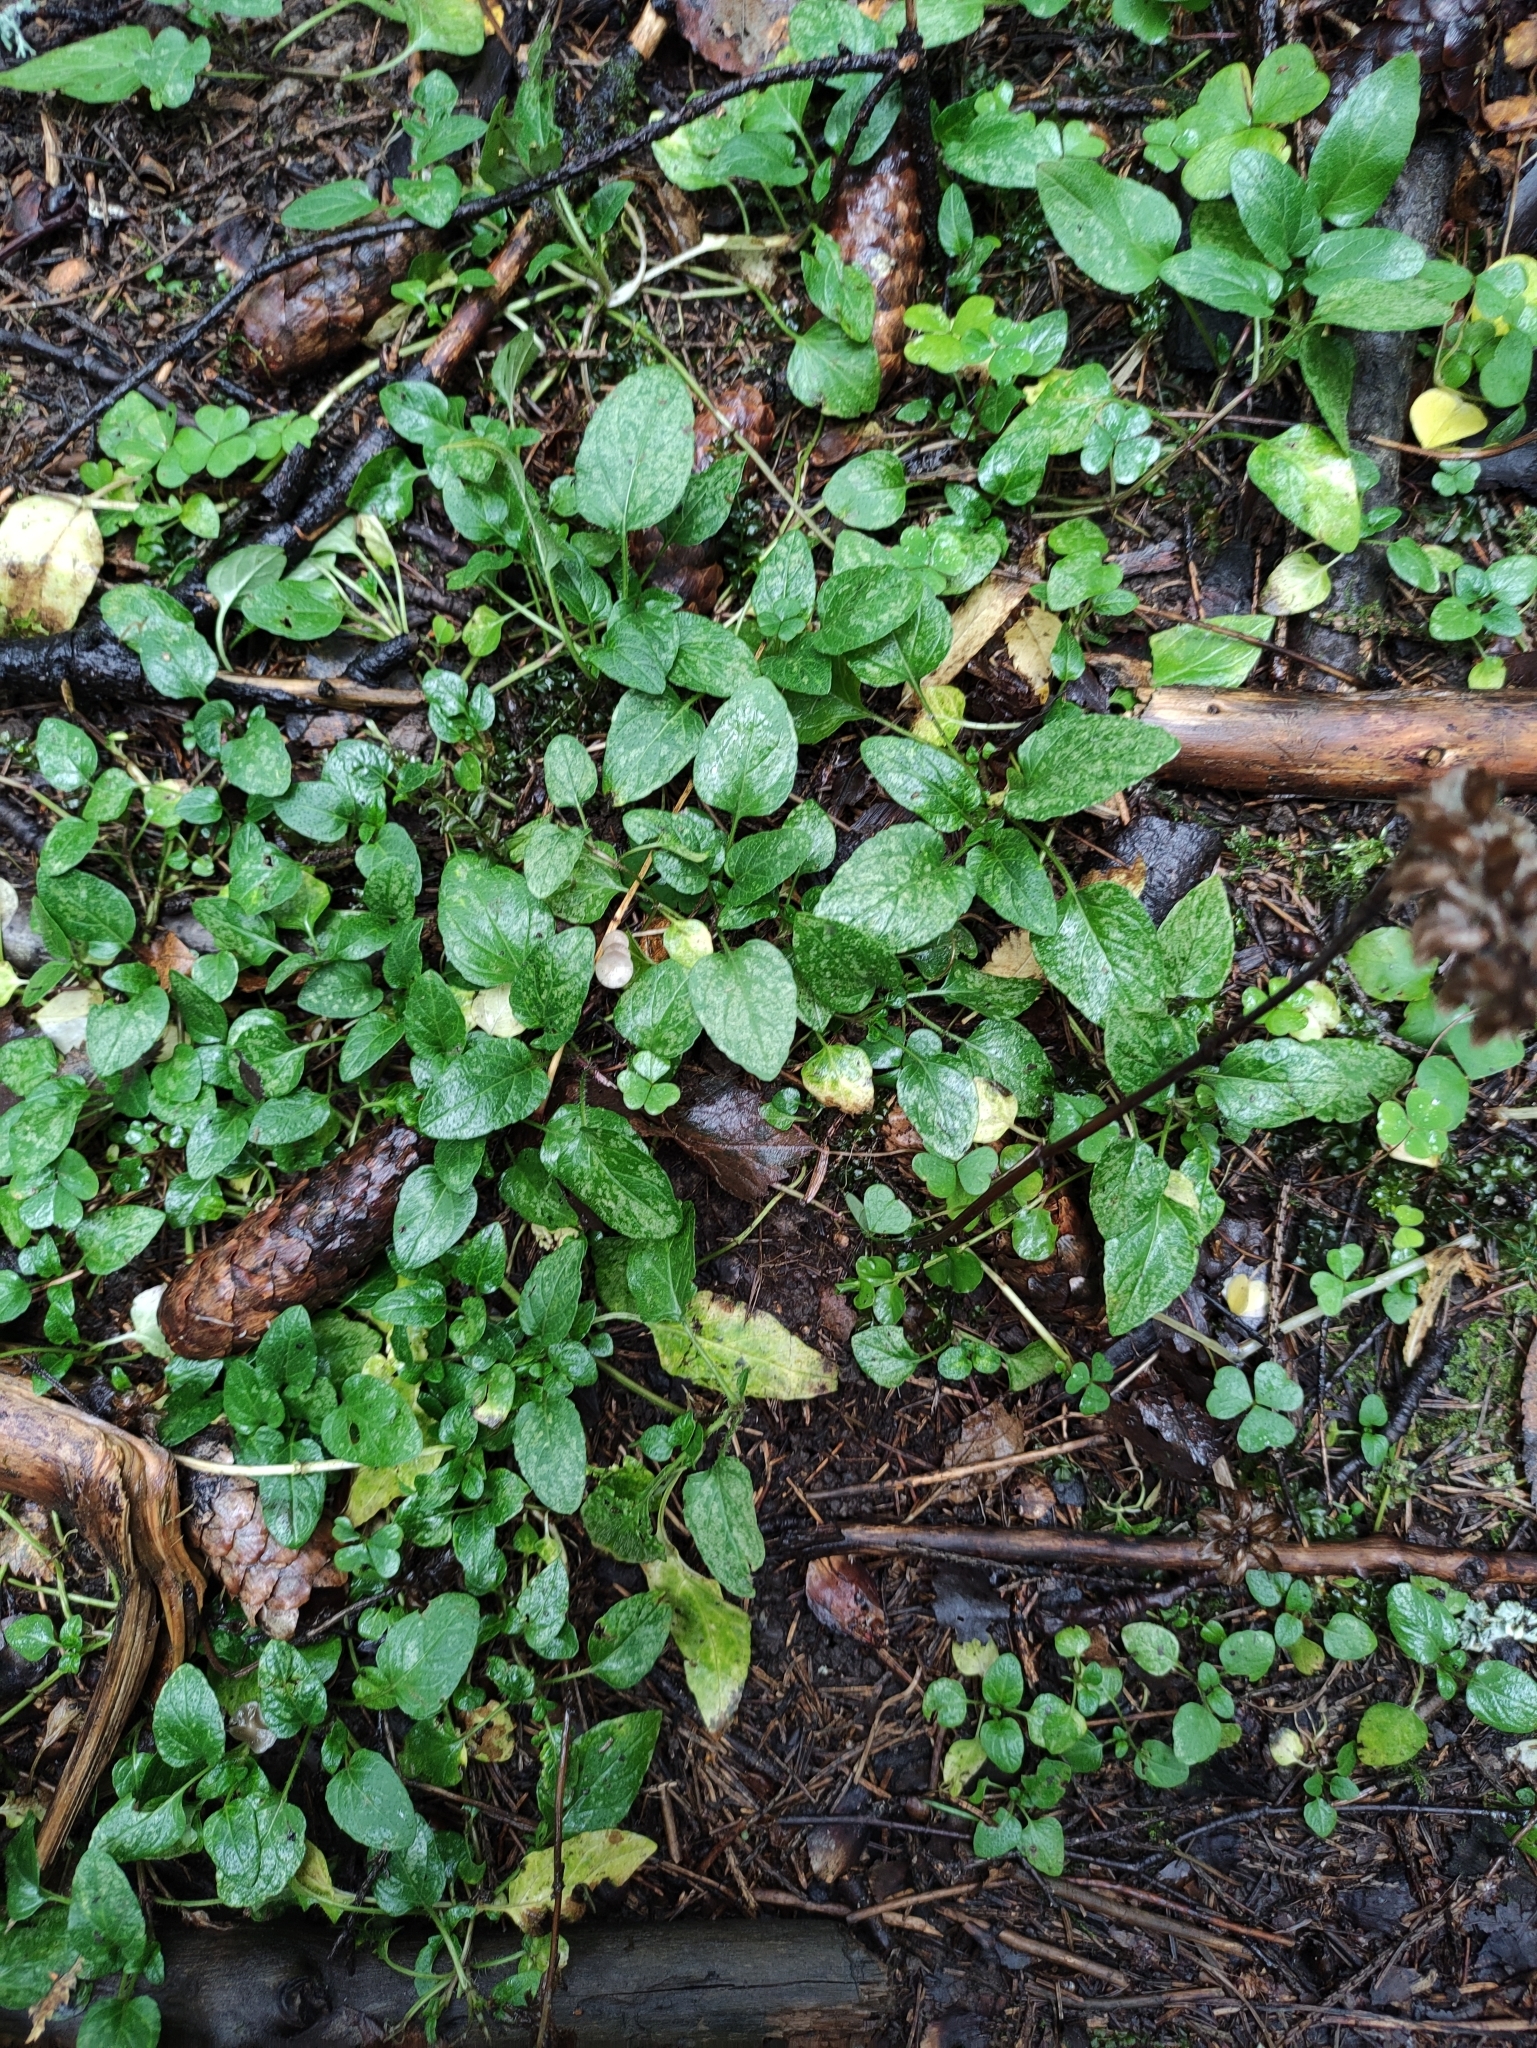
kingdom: Plantae
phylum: Tracheophyta
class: Magnoliopsida
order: Lamiales
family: Lamiaceae
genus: Prunella
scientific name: Prunella vulgaris
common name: Heal-all
